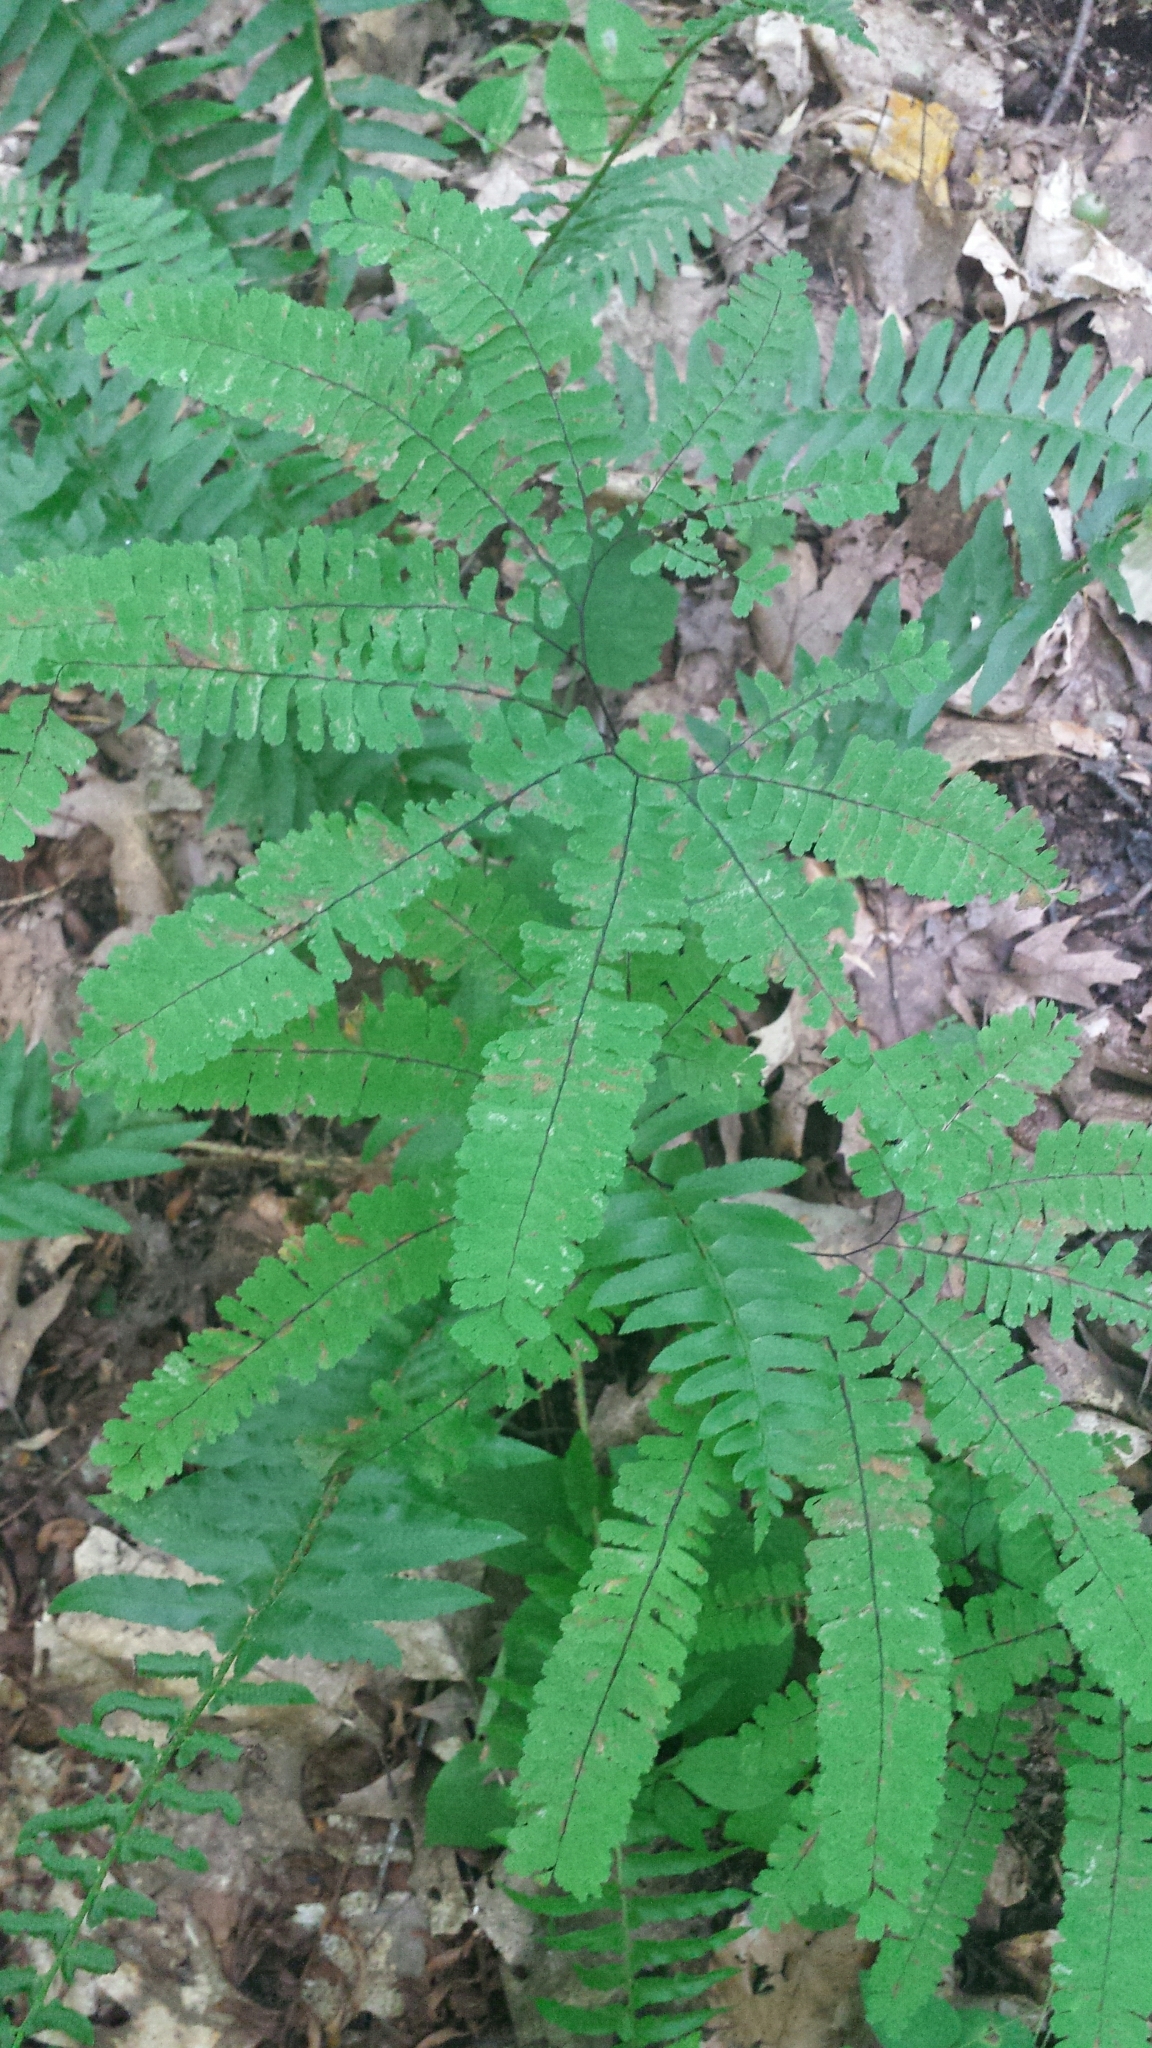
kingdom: Plantae
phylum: Tracheophyta
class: Polypodiopsida
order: Polypodiales
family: Pteridaceae
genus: Adiantum
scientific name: Adiantum pedatum
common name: Five-finger fern
